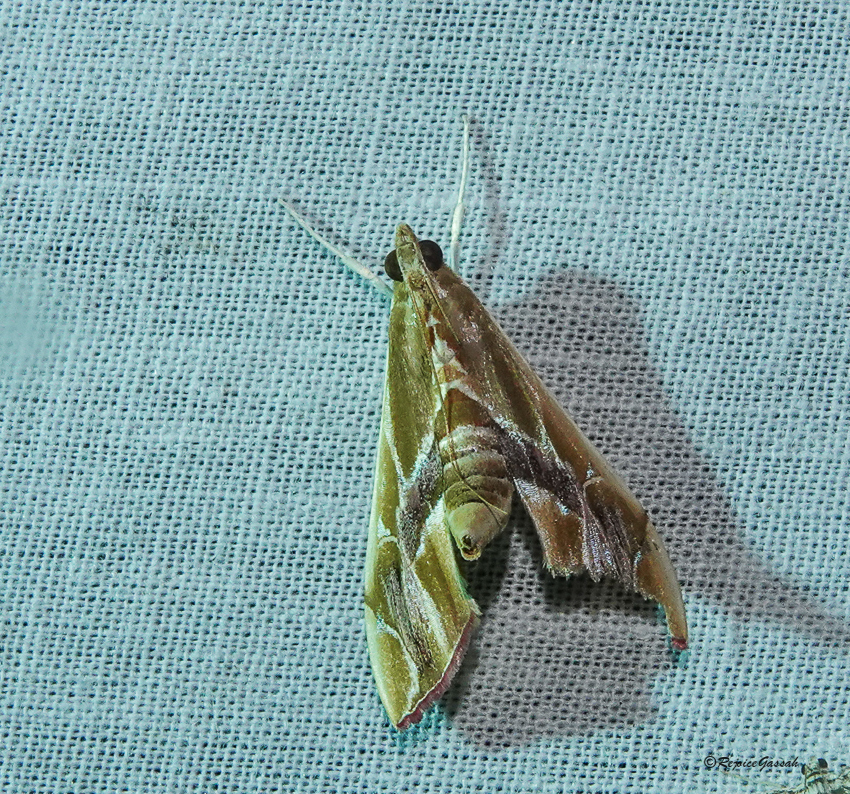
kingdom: Animalia
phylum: Arthropoda
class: Insecta
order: Lepidoptera
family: Crambidae
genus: Agathodes
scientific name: Agathodes ostentalis
